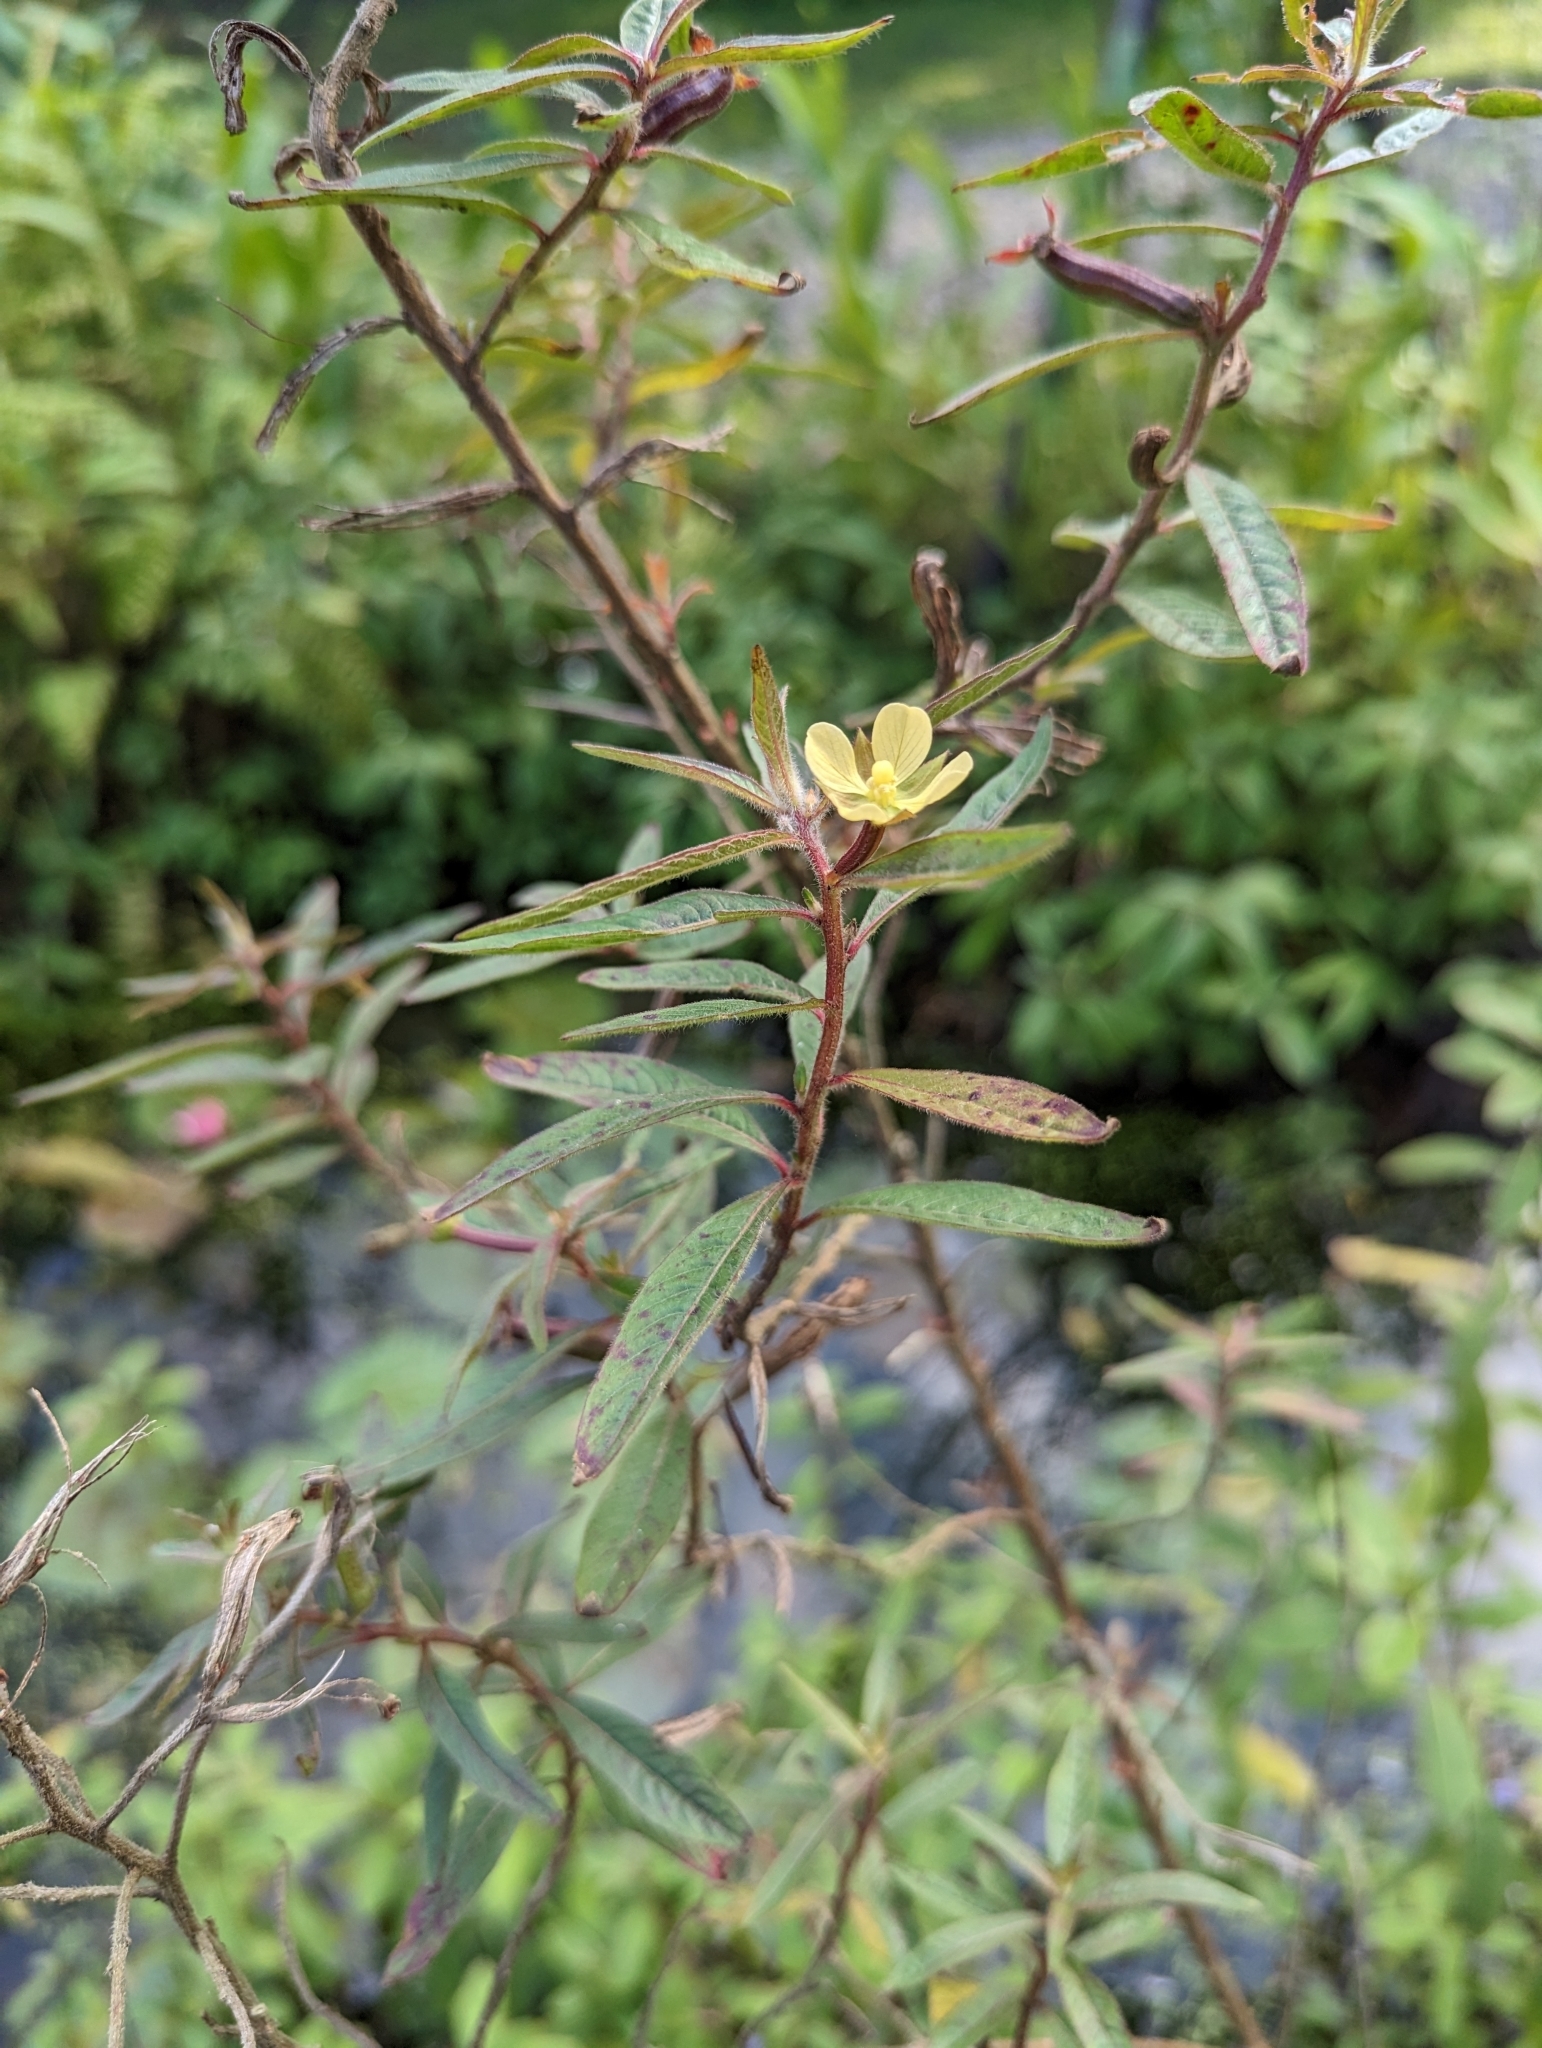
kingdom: Plantae
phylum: Tracheophyta
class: Magnoliopsida
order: Myrtales
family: Onagraceae
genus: Ludwigia
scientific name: Ludwigia octovalvis
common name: Water-primrose
